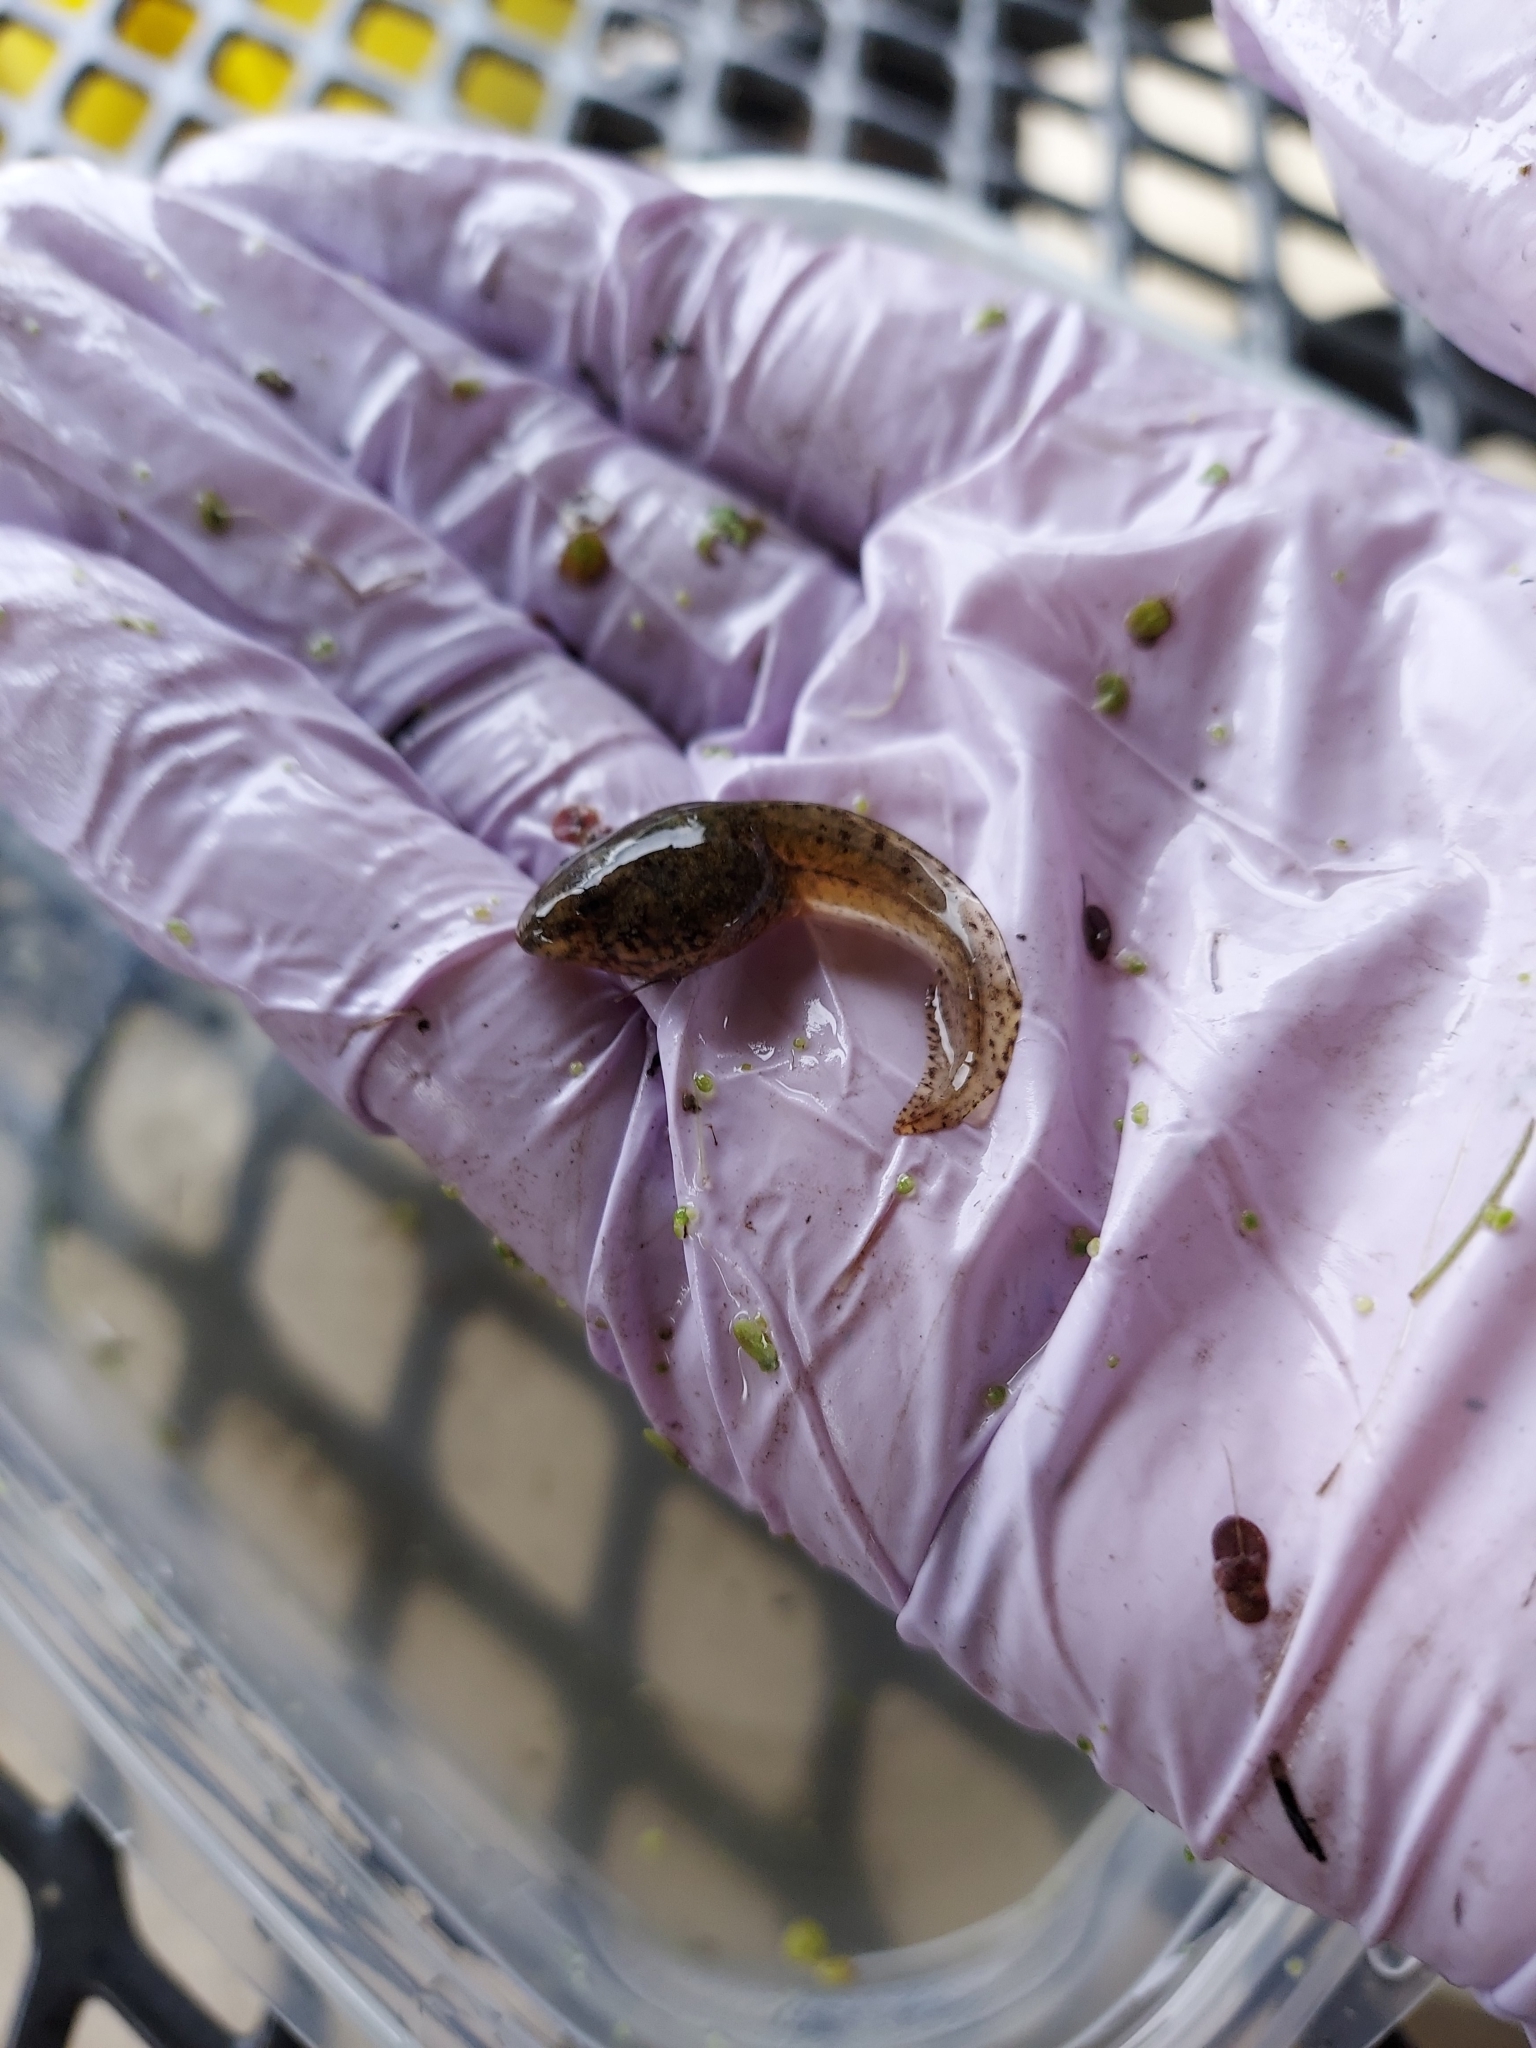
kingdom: Animalia
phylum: Chordata
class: Amphibia
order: Anura
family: Ranidae
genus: Lithobates
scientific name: Lithobates clamitans
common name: Green frog
